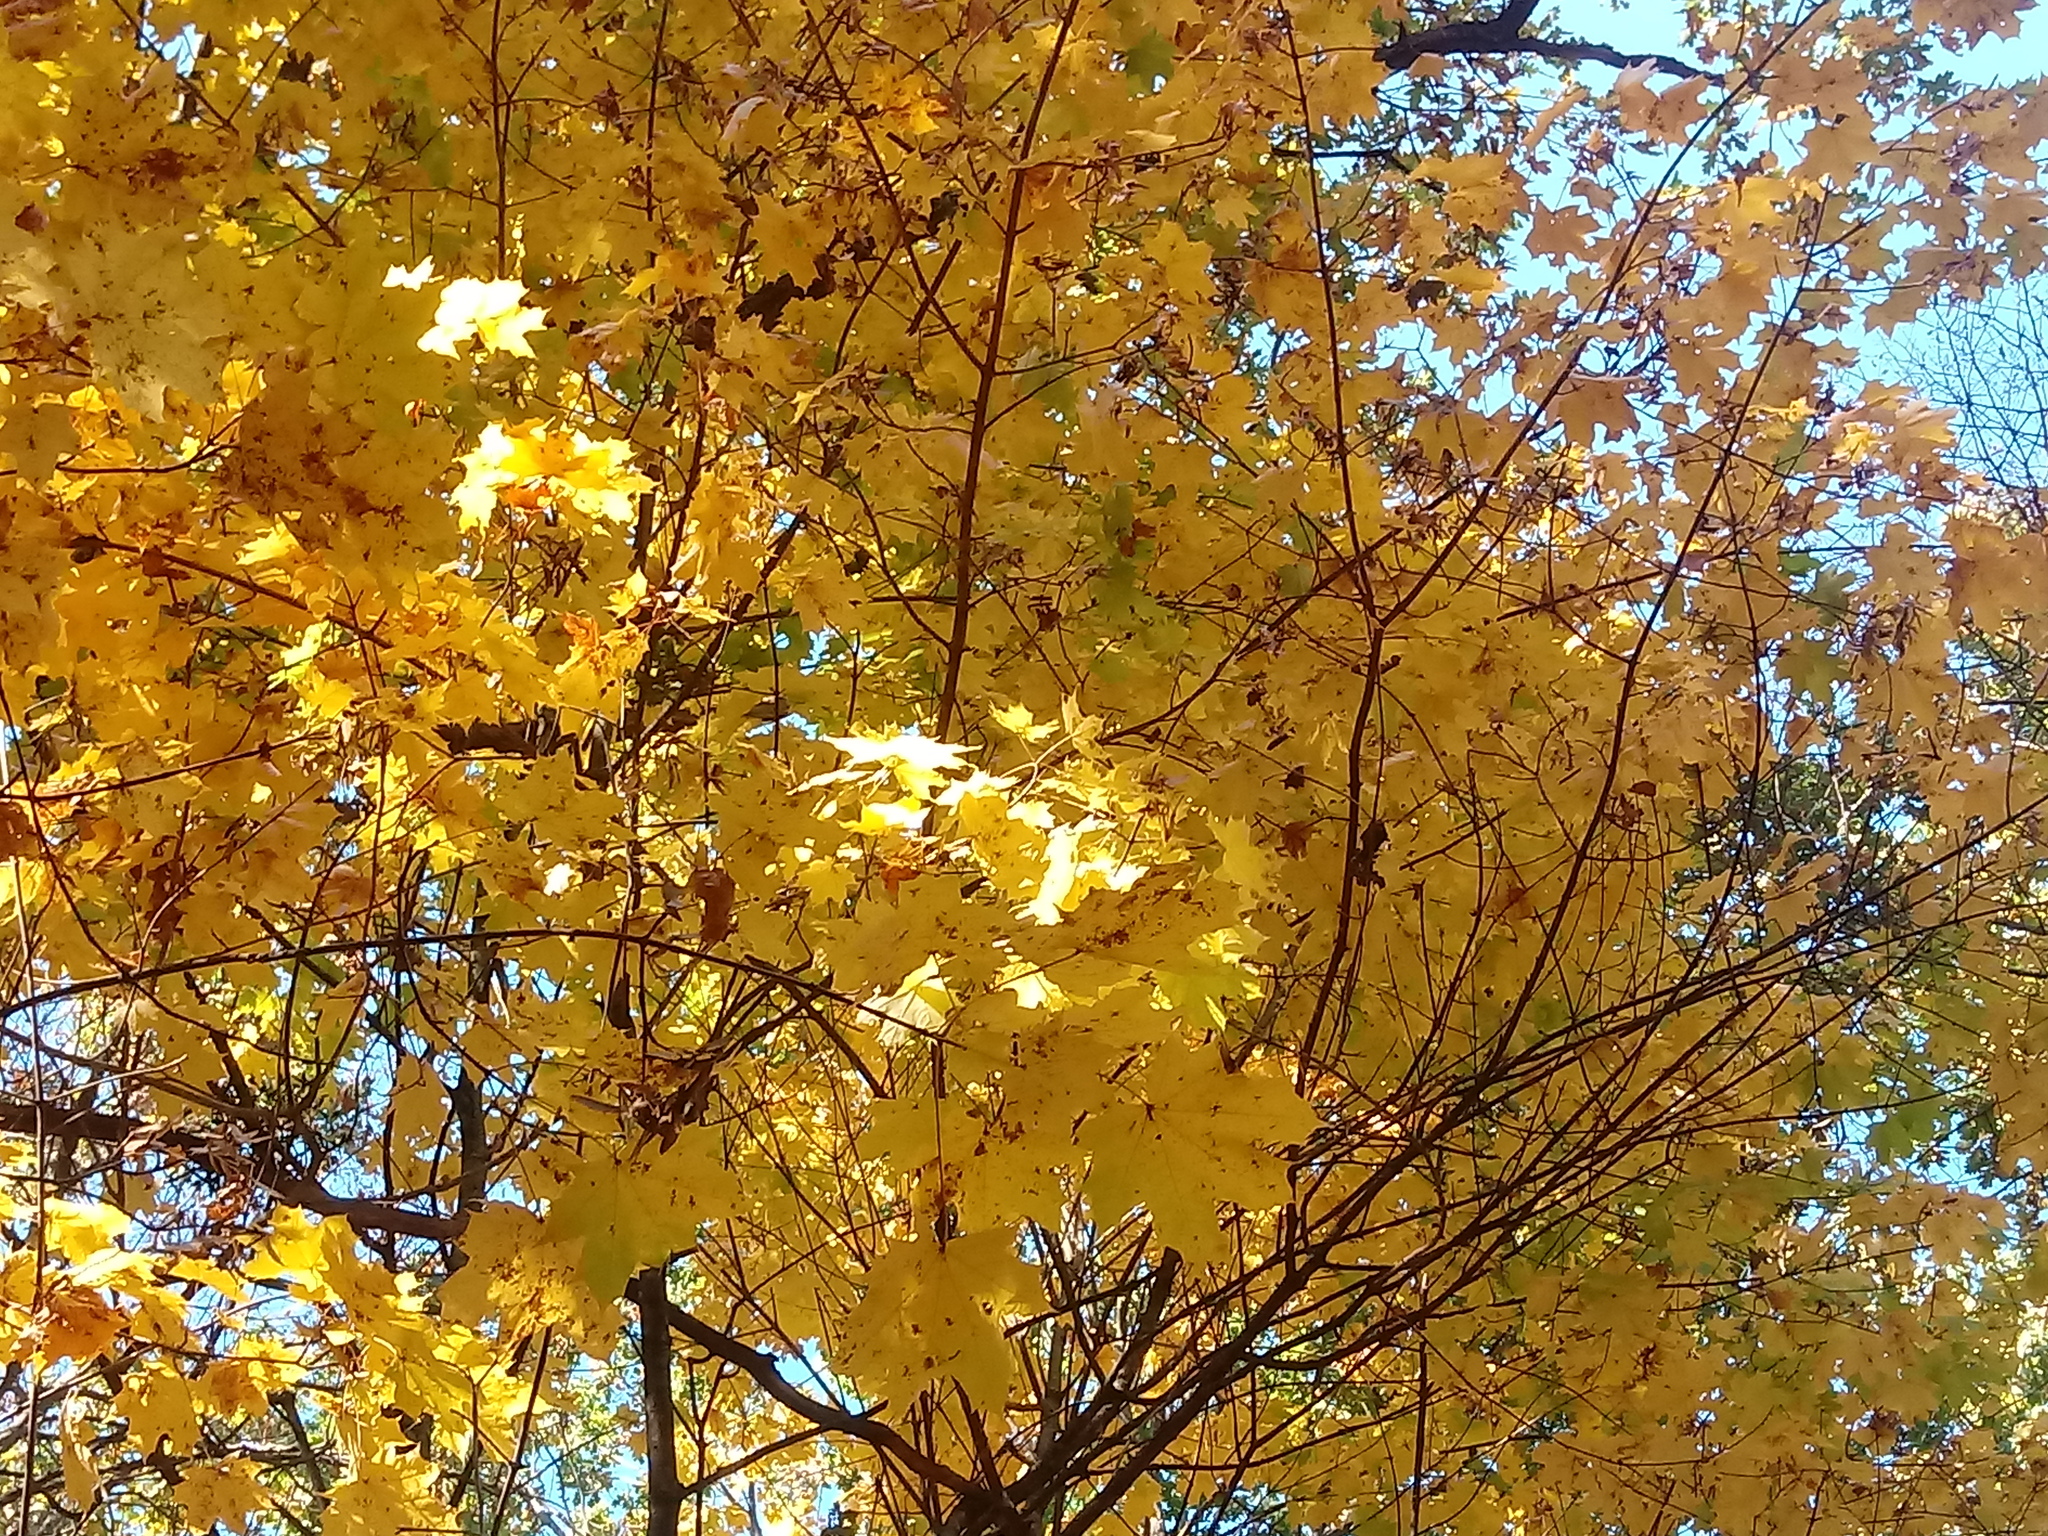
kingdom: Plantae
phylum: Tracheophyta
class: Magnoliopsida
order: Sapindales
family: Sapindaceae
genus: Acer
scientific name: Acer platanoides
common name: Norway maple
